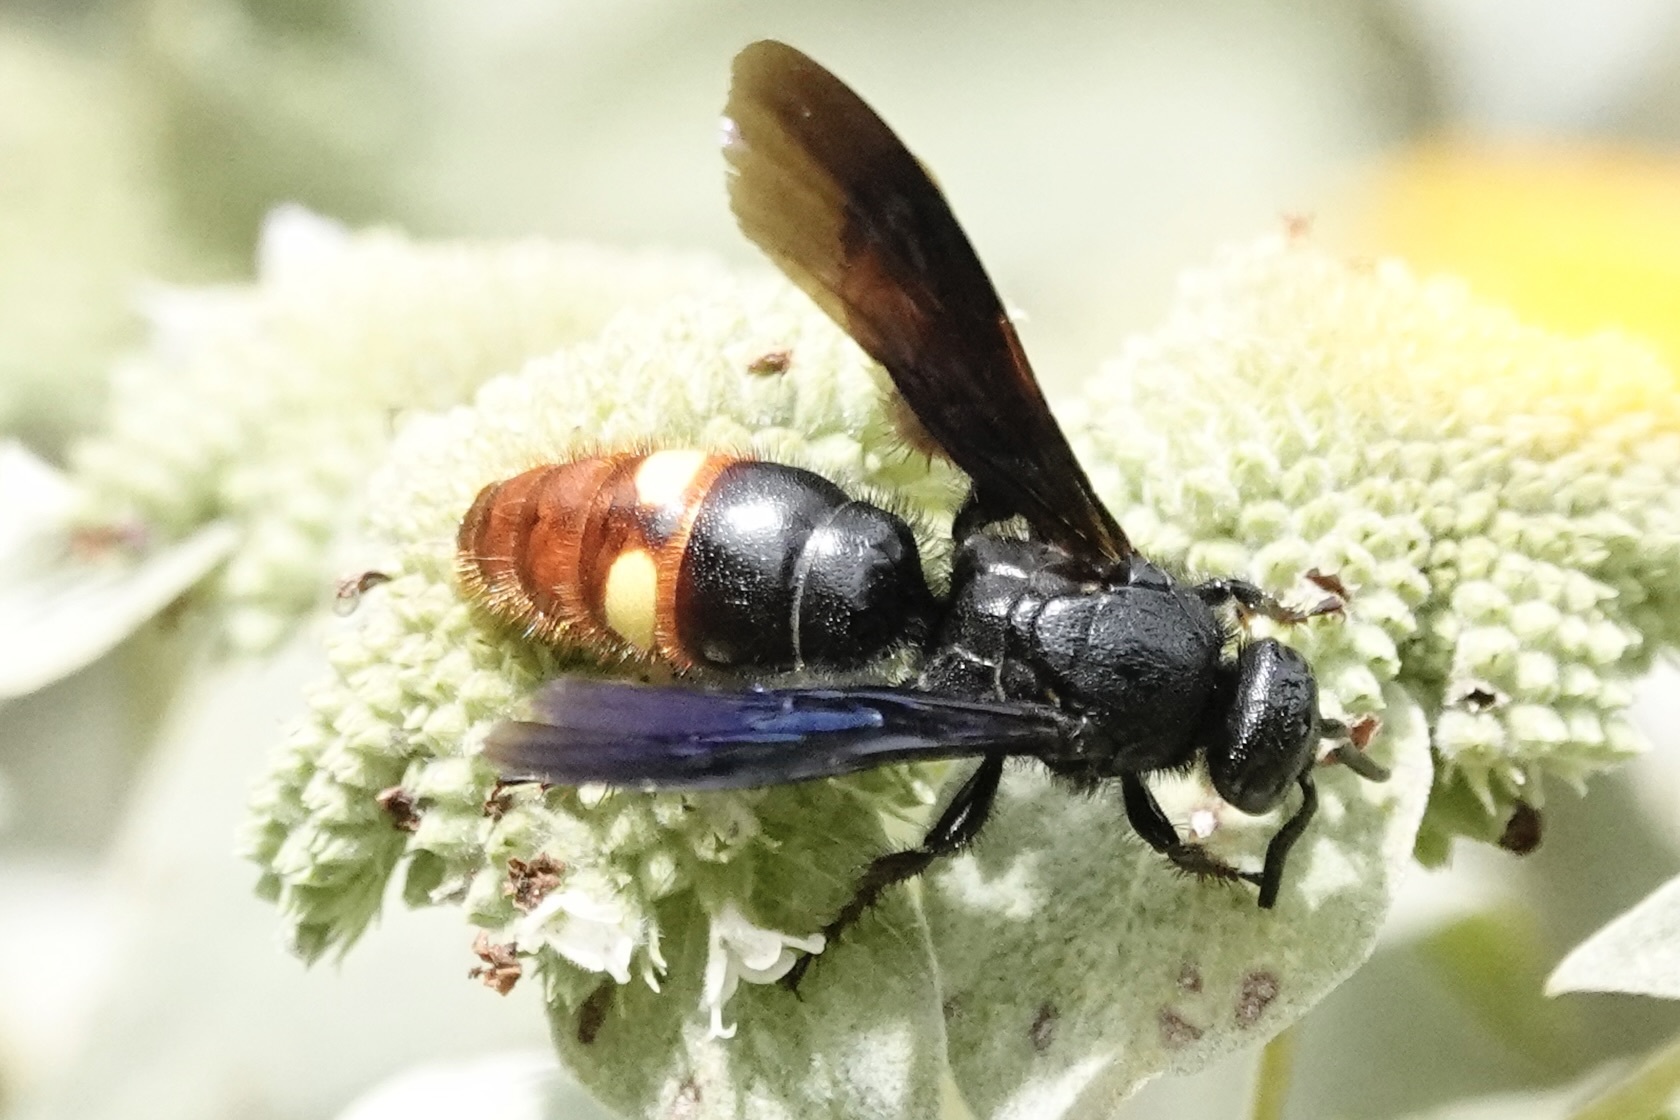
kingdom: Animalia
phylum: Arthropoda
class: Insecta
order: Hymenoptera
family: Scoliidae
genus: Scolia
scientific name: Scolia dubia
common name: Blue-winged scoliid wasp
